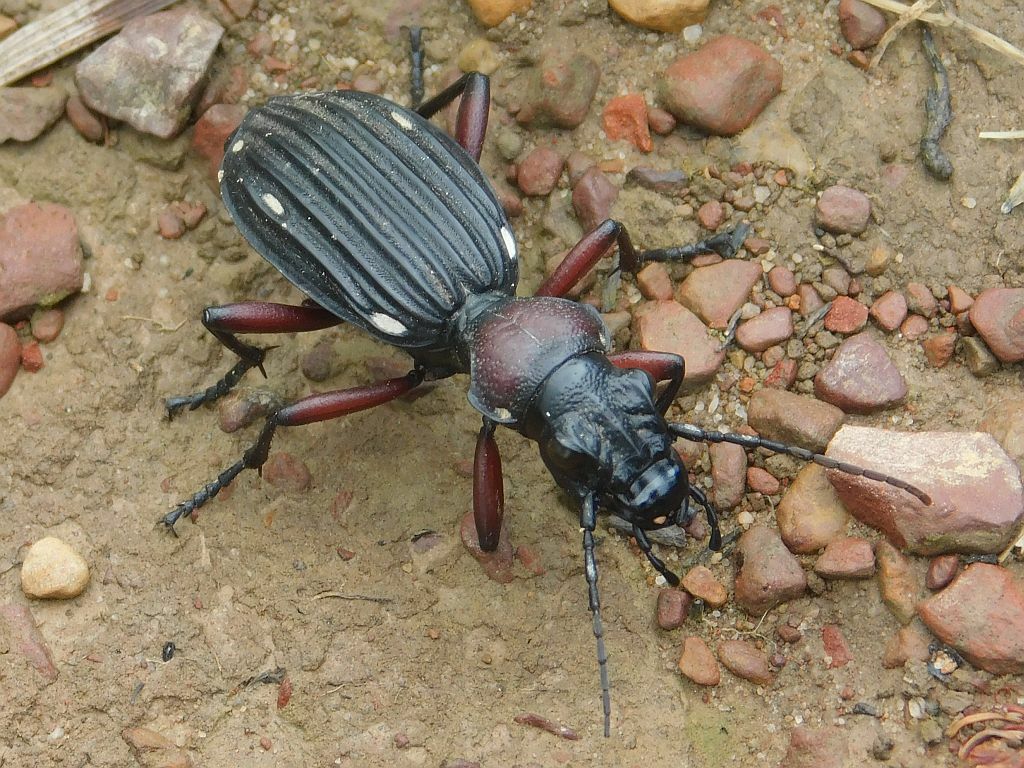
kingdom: Animalia
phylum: Arthropoda
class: Insecta
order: Coleoptera
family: Carabidae
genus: Anthia
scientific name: Anthia decemguttata
